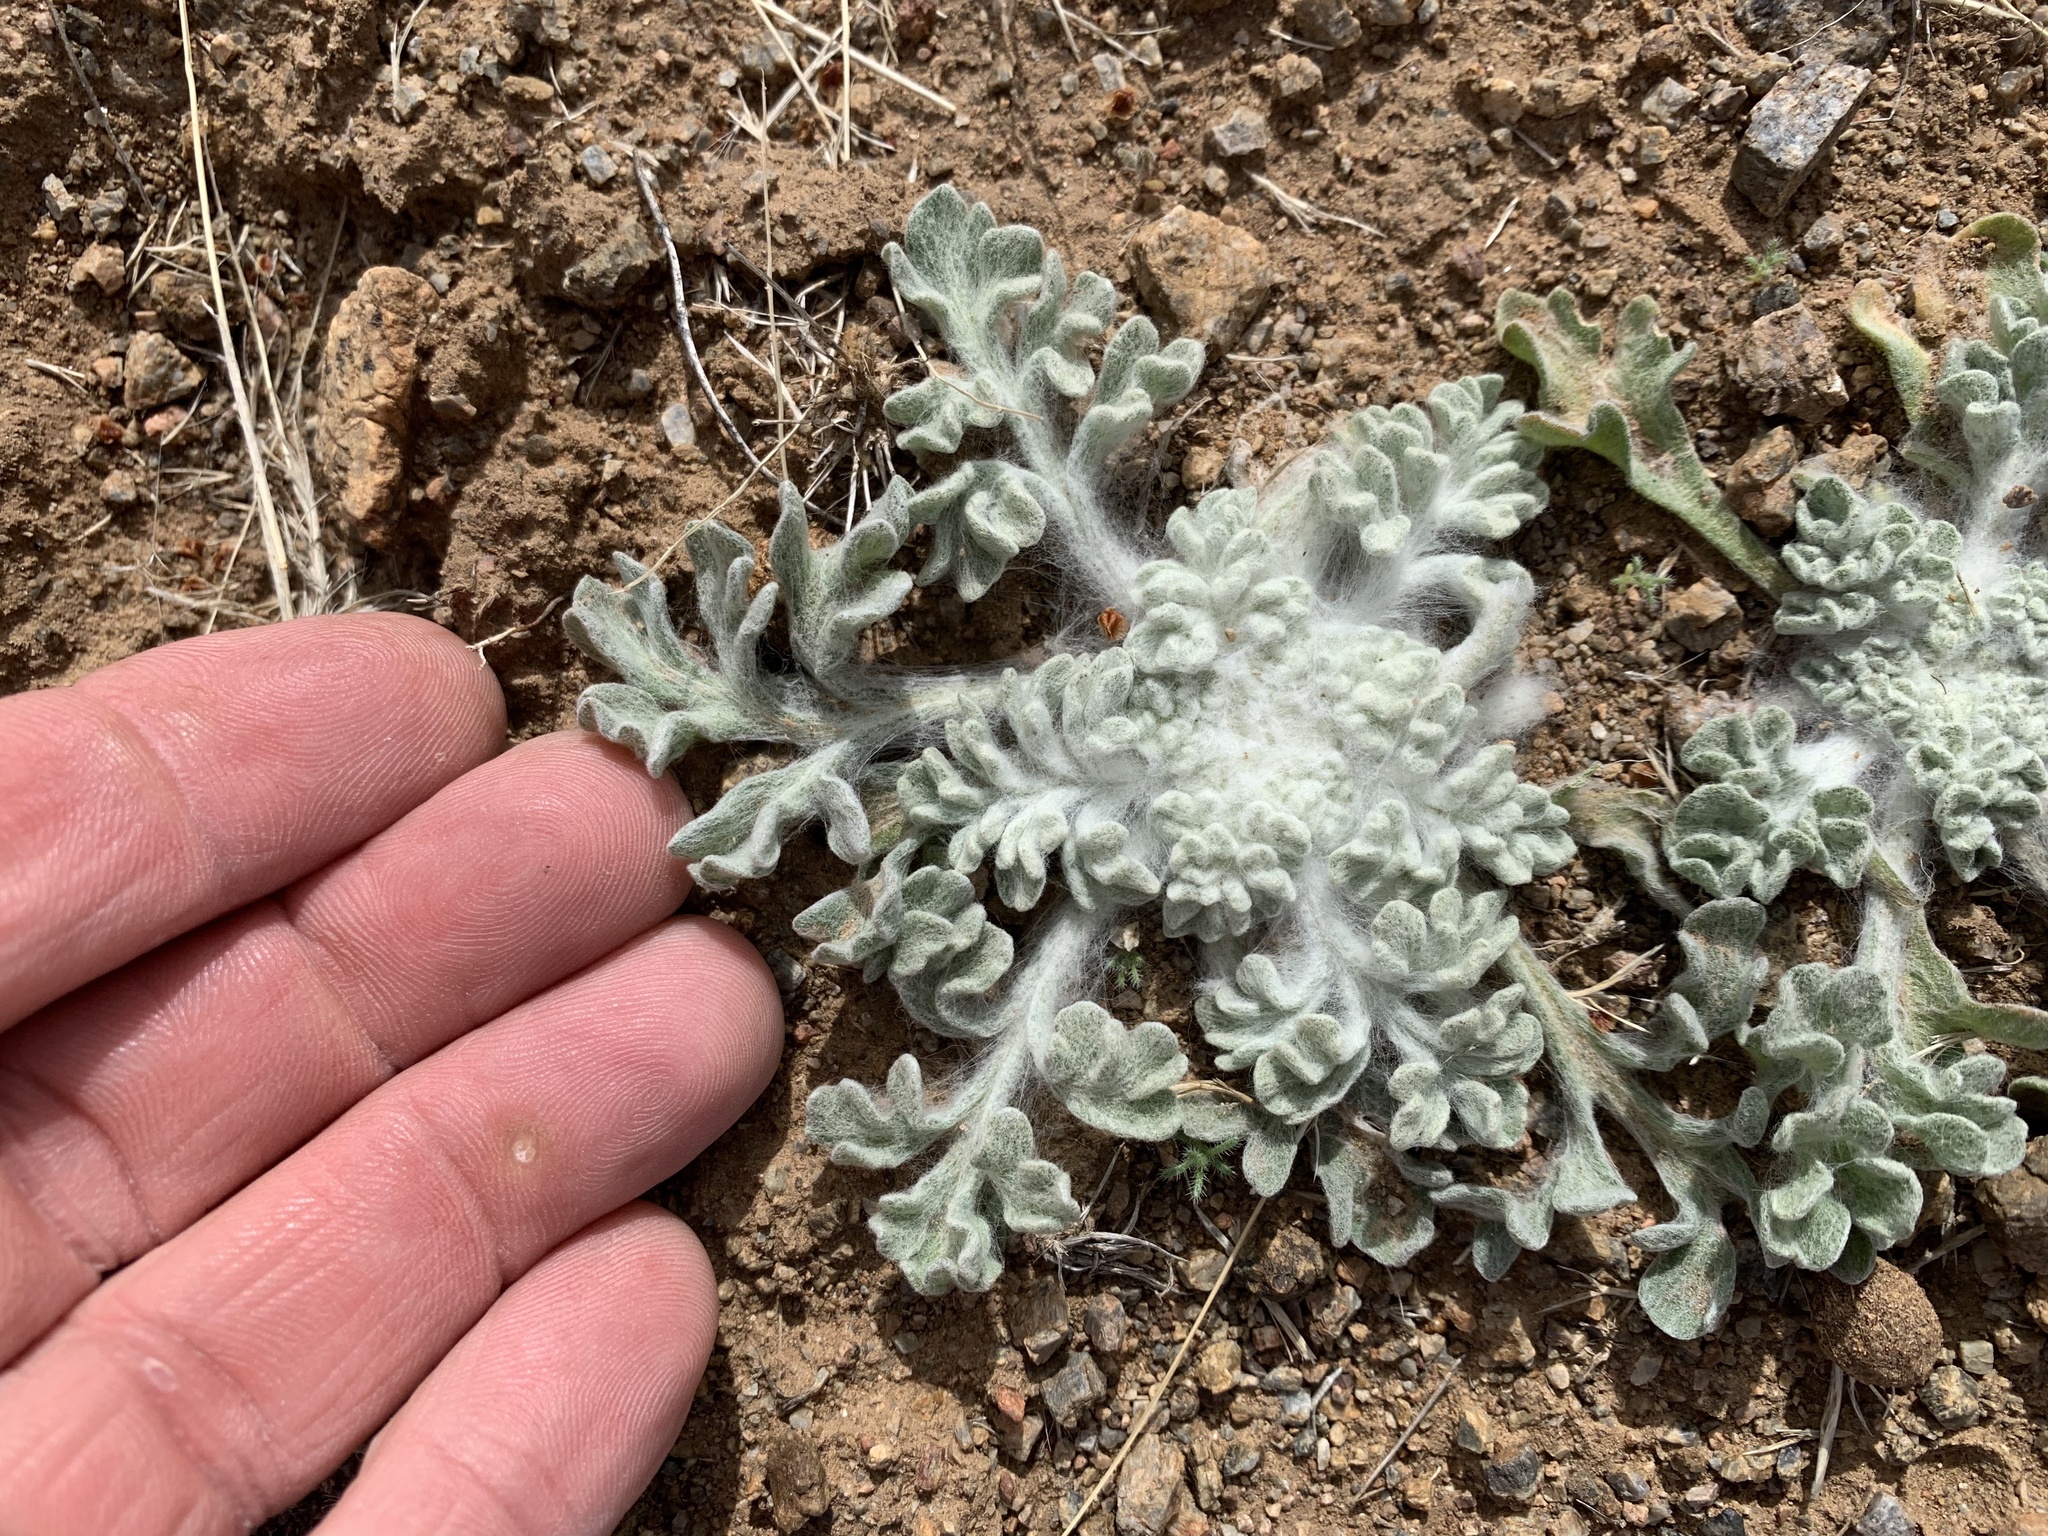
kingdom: Plantae
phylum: Tracheophyta
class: Magnoliopsida
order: Asterales
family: Asteraceae
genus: Baileya
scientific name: Baileya multiradiata
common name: Desert-marigold
